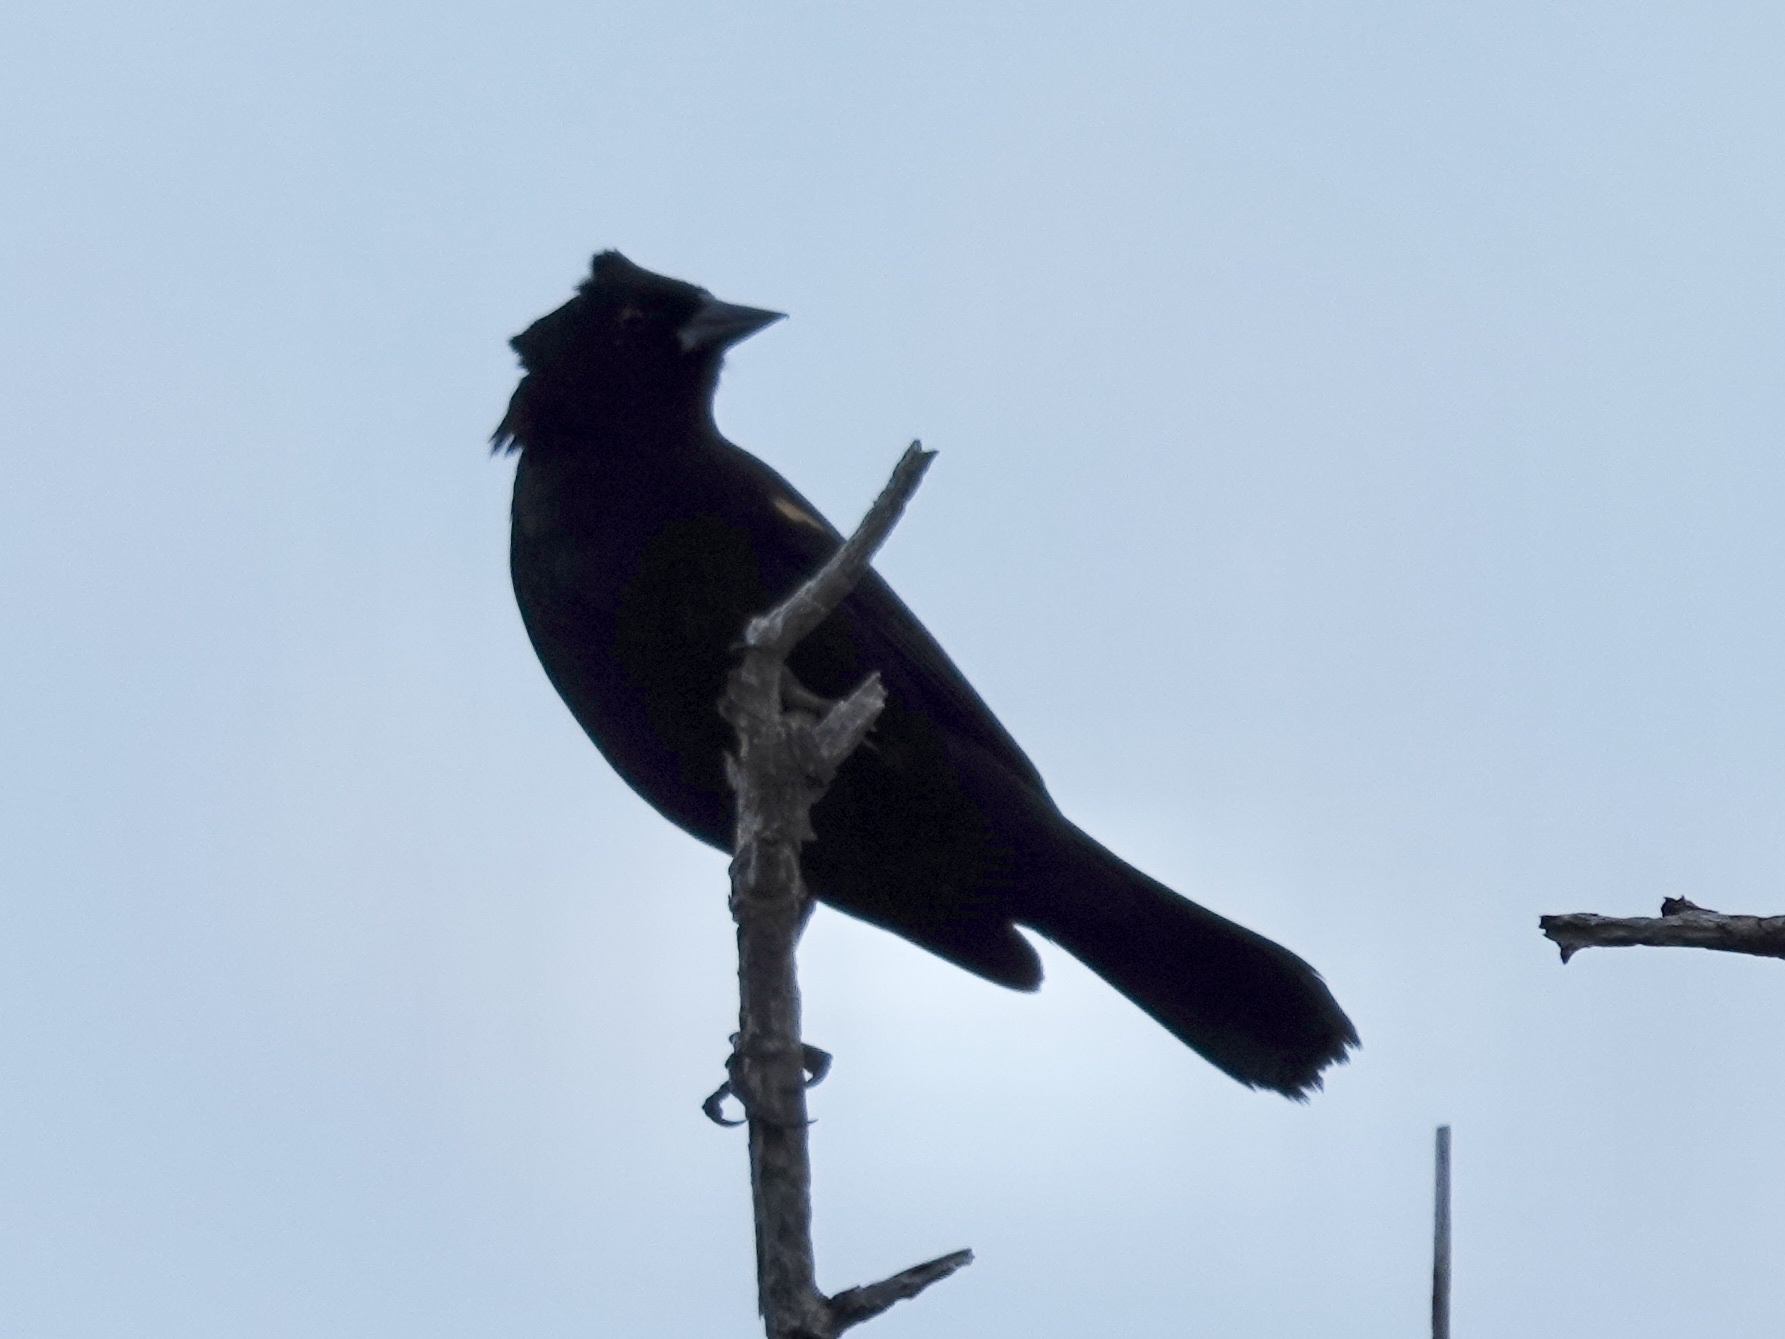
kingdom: Animalia
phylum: Chordata
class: Aves
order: Passeriformes
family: Icteridae
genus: Agelaius
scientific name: Agelaius phoeniceus
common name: Red-winged blackbird
